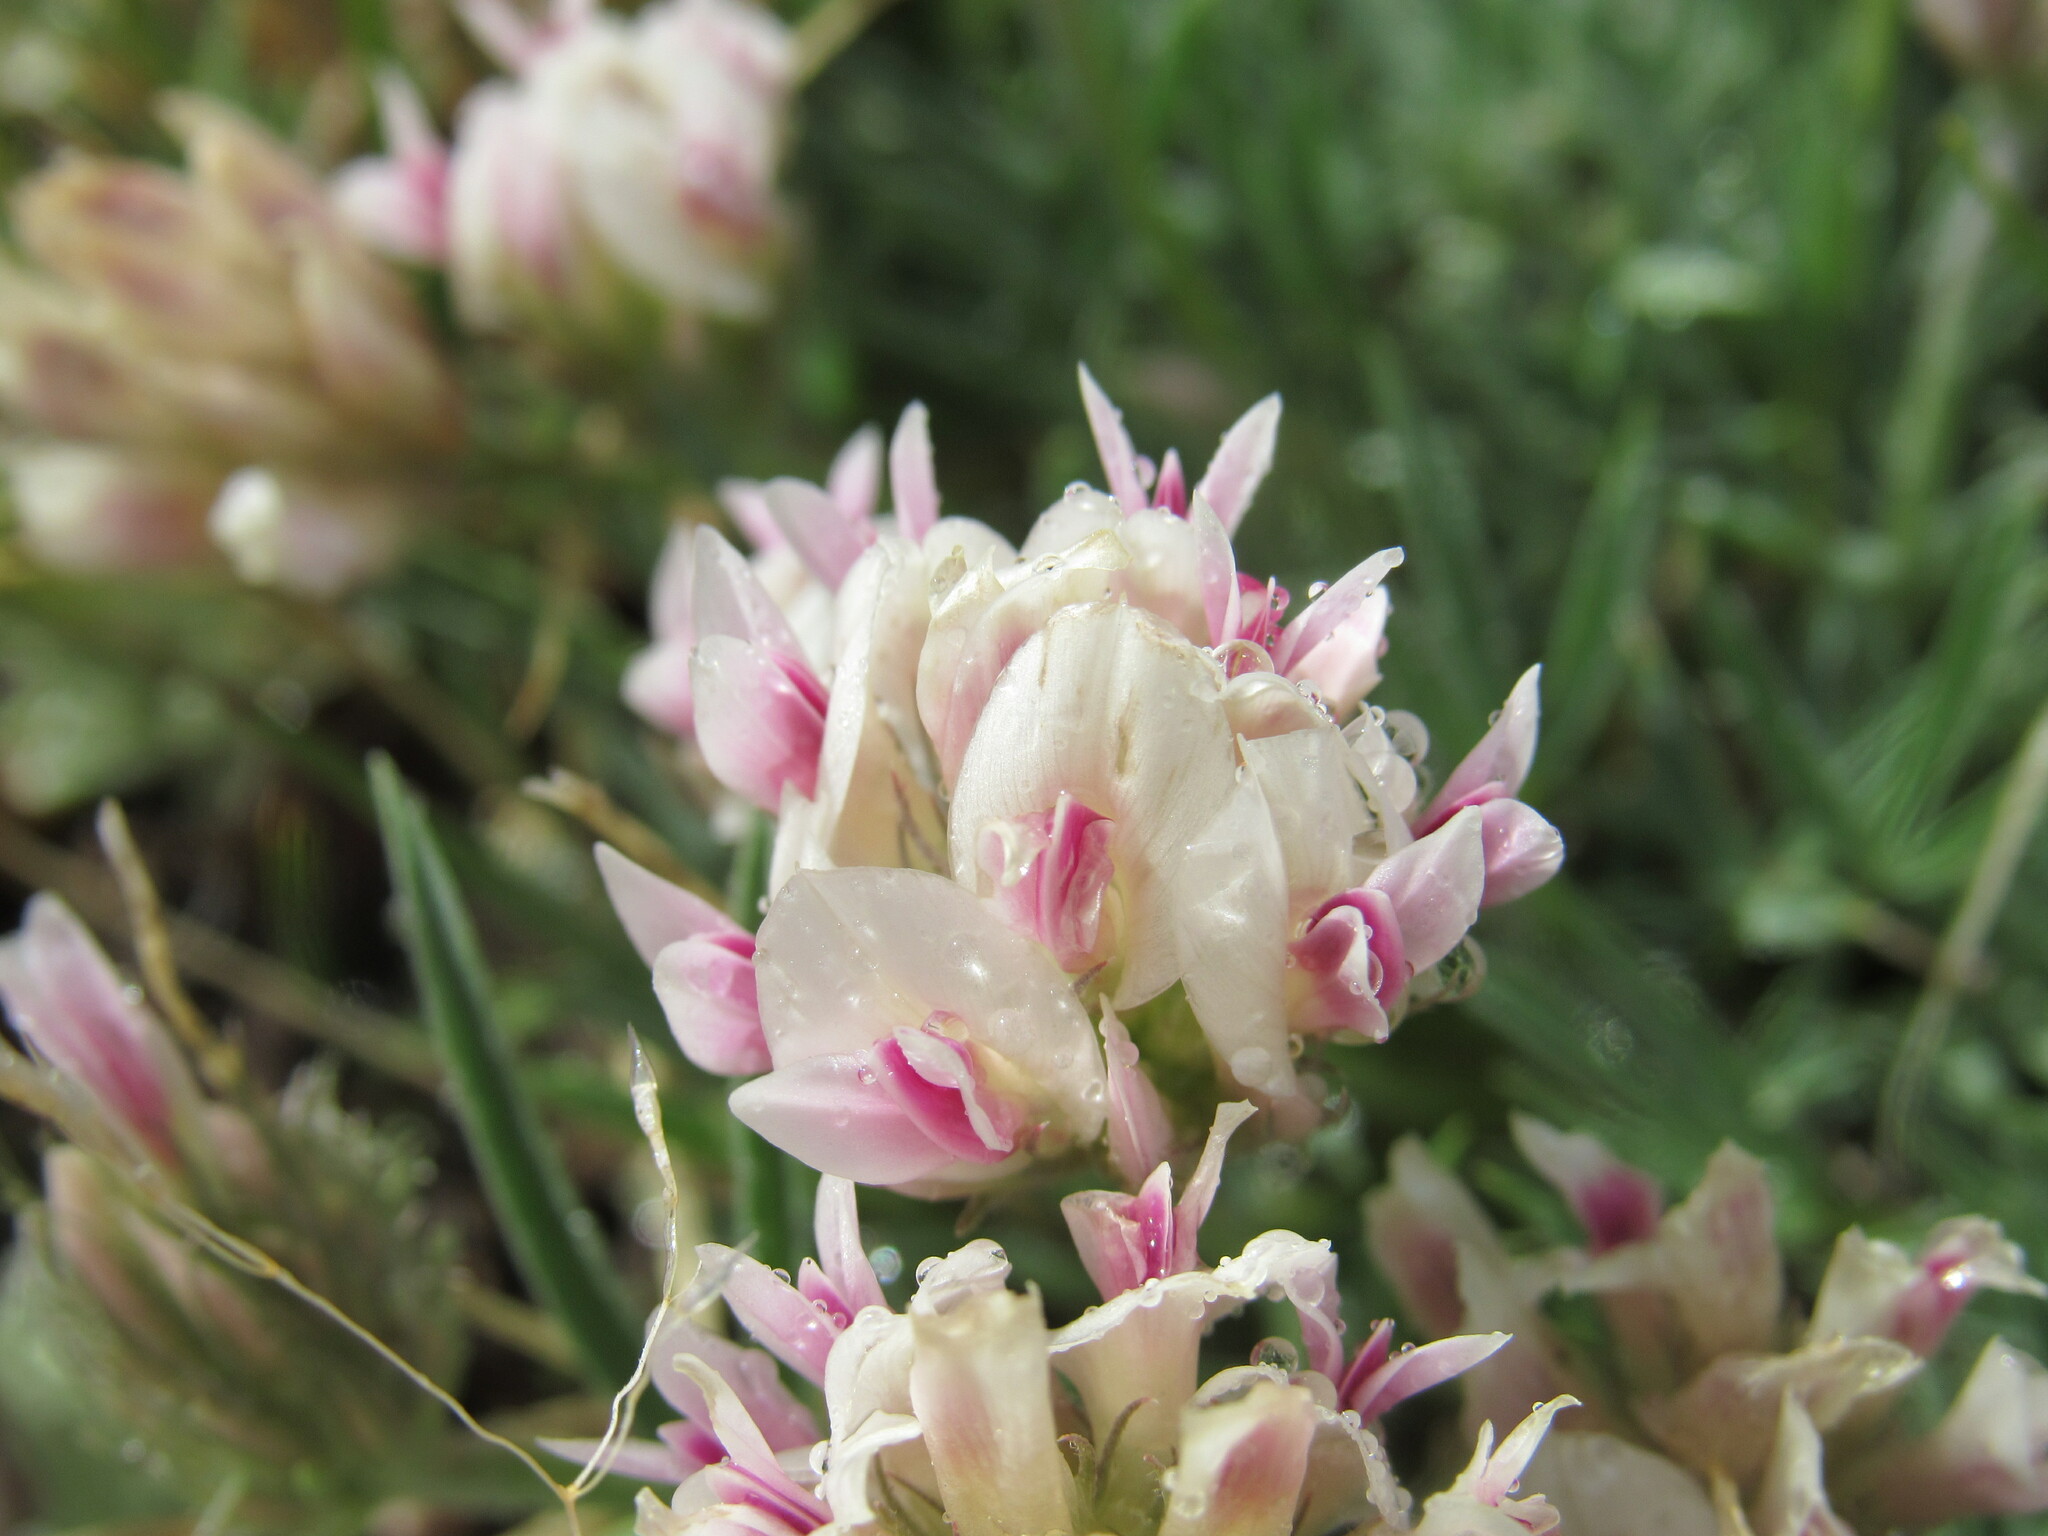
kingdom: Plantae
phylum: Tracheophyta
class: Magnoliopsida
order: Fabales
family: Fabaceae
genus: Trifolium
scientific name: Trifolium dasyphyllum
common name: Whip-root clover
